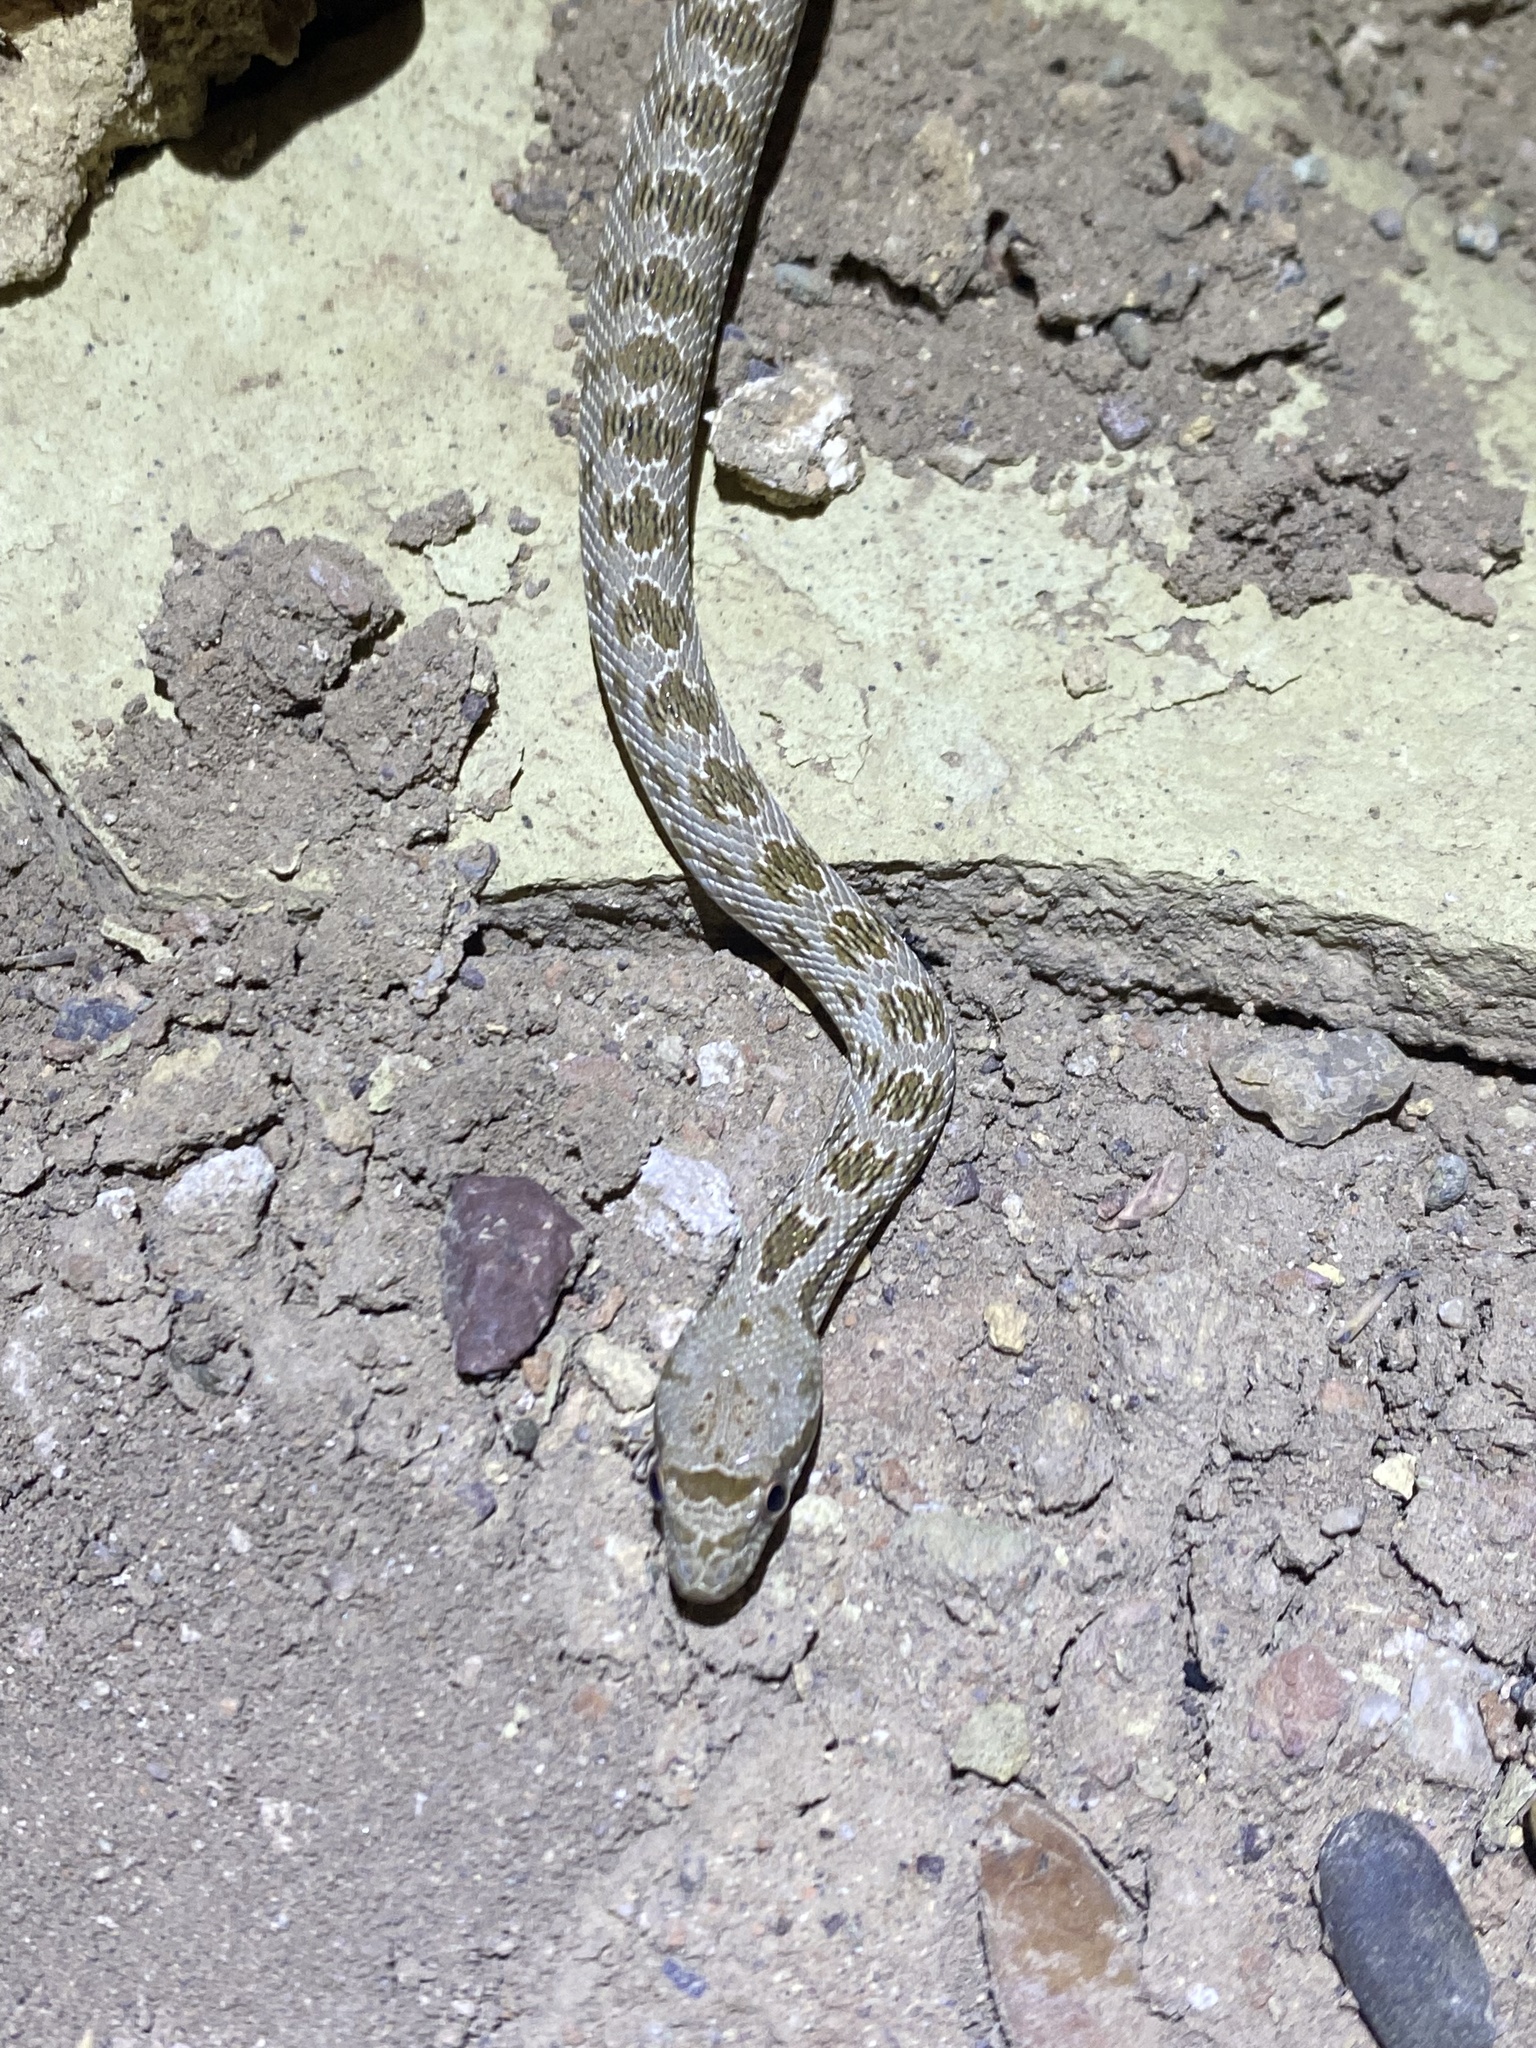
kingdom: Animalia
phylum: Chordata
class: Squamata
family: Colubridae
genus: Spalerosophis
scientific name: Spalerosophis diadema
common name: Diadem snake
